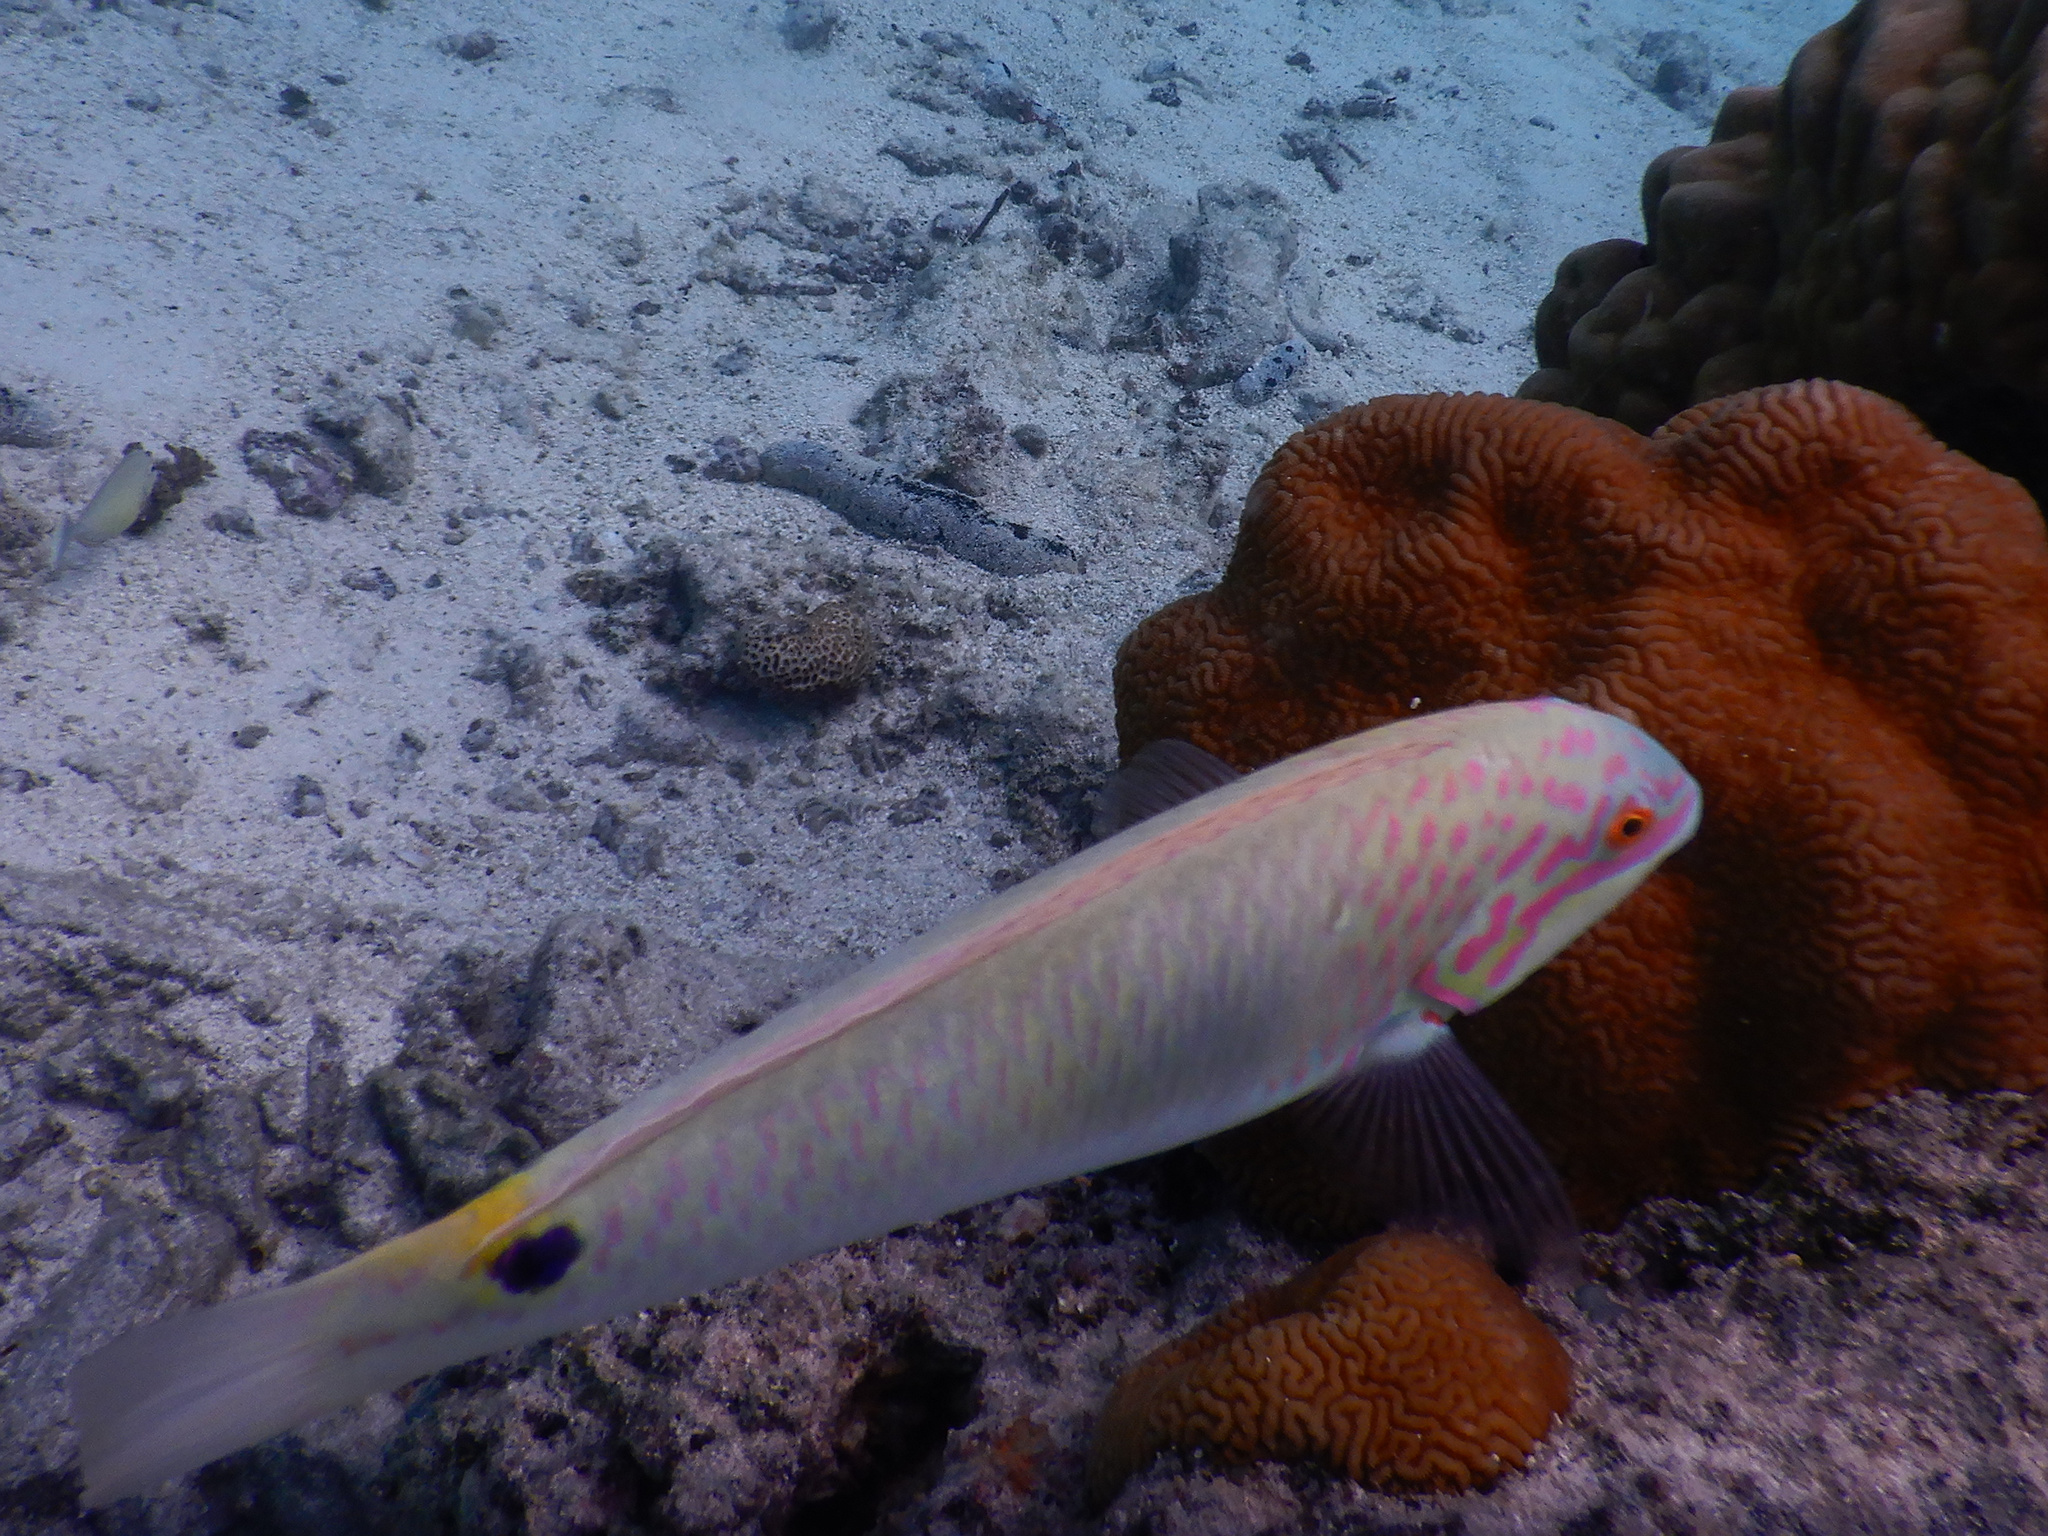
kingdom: Animalia
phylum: Chordata
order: Perciformes
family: Labridae
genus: Halichoeres
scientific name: Halichoeres trimaculatus
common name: Three-spot wrasse
